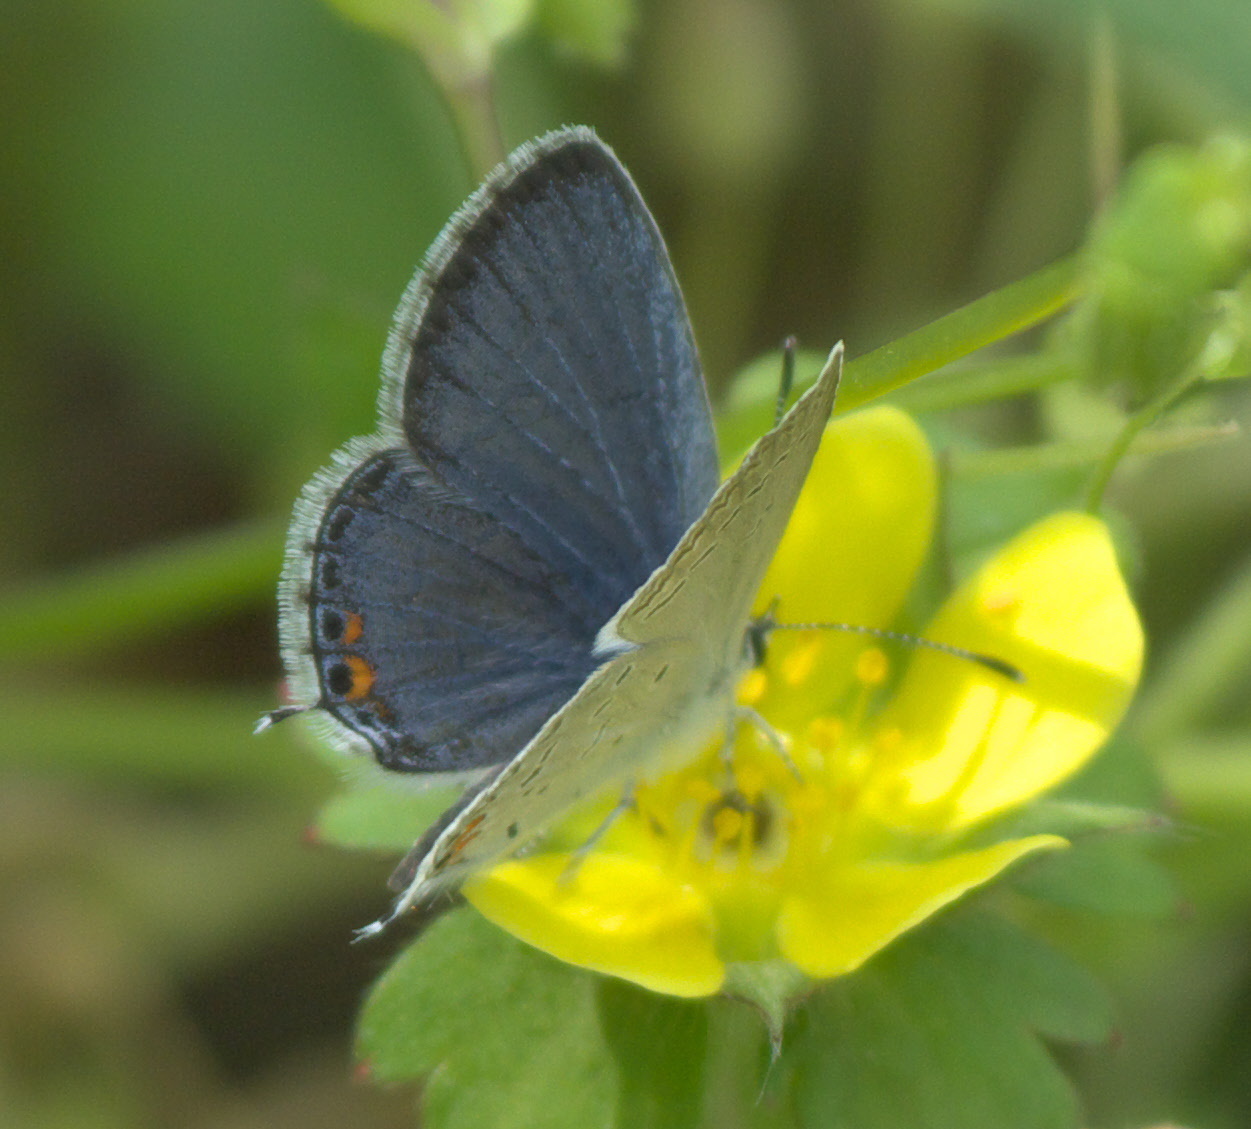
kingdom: Animalia
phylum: Arthropoda
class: Insecta
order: Lepidoptera
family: Lycaenidae
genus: Elkalyce
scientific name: Elkalyce comyntas
